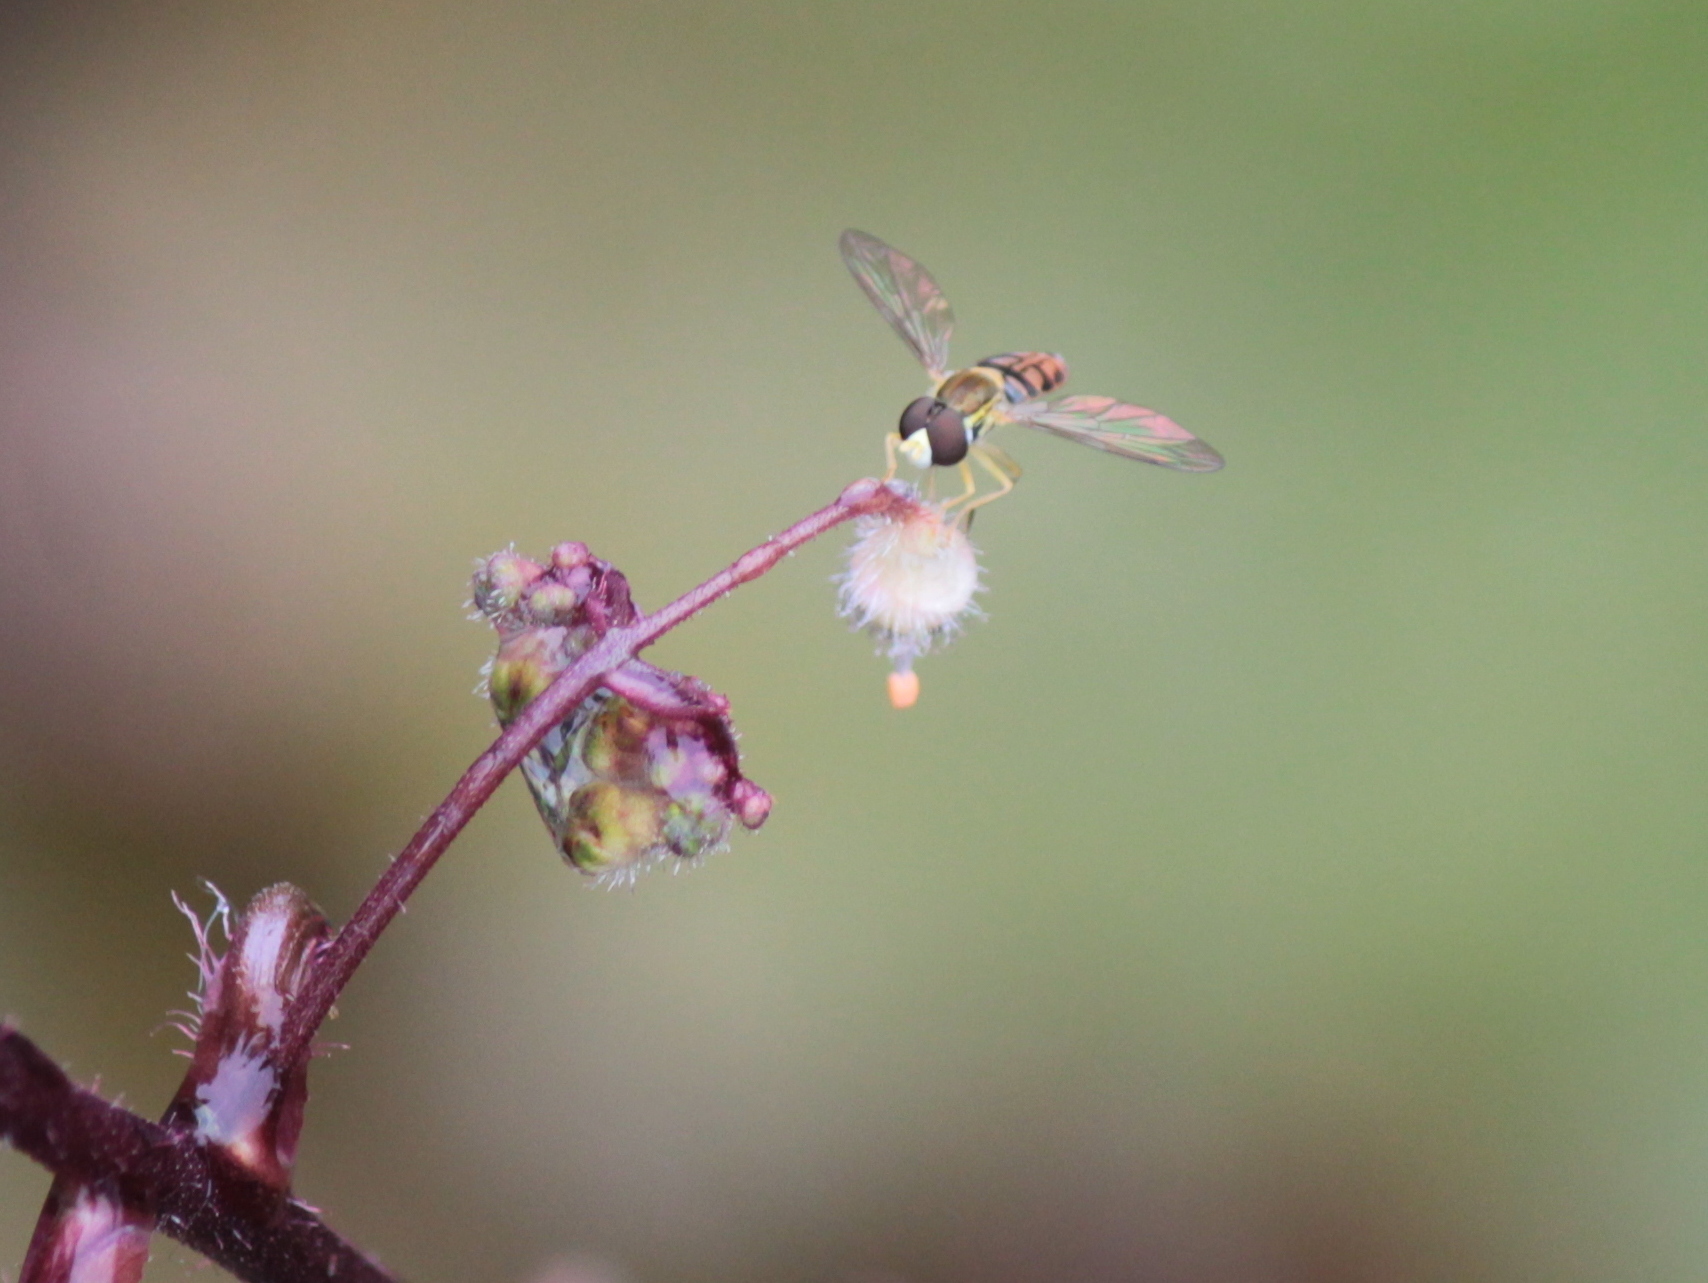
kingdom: Animalia
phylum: Arthropoda
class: Insecta
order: Diptera
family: Syrphidae
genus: Toxomerus
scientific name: Toxomerus marginatus
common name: Syrphid fly
